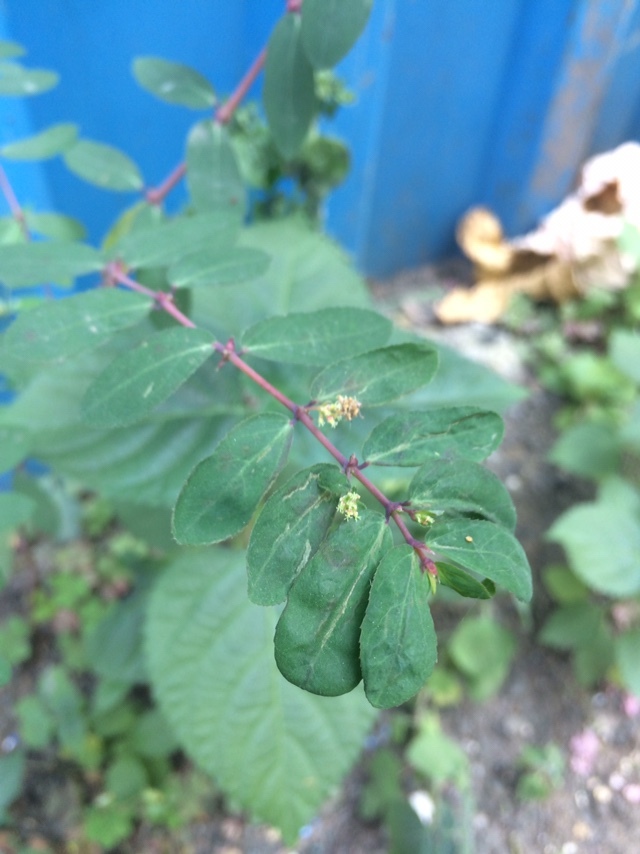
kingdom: Plantae
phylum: Tracheophyta
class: Magnoliopsida
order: Malpighiales
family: Euphorbiaceae
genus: Euphorbia
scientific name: Euphorbia hypericifolia
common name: Graceful sandmat
